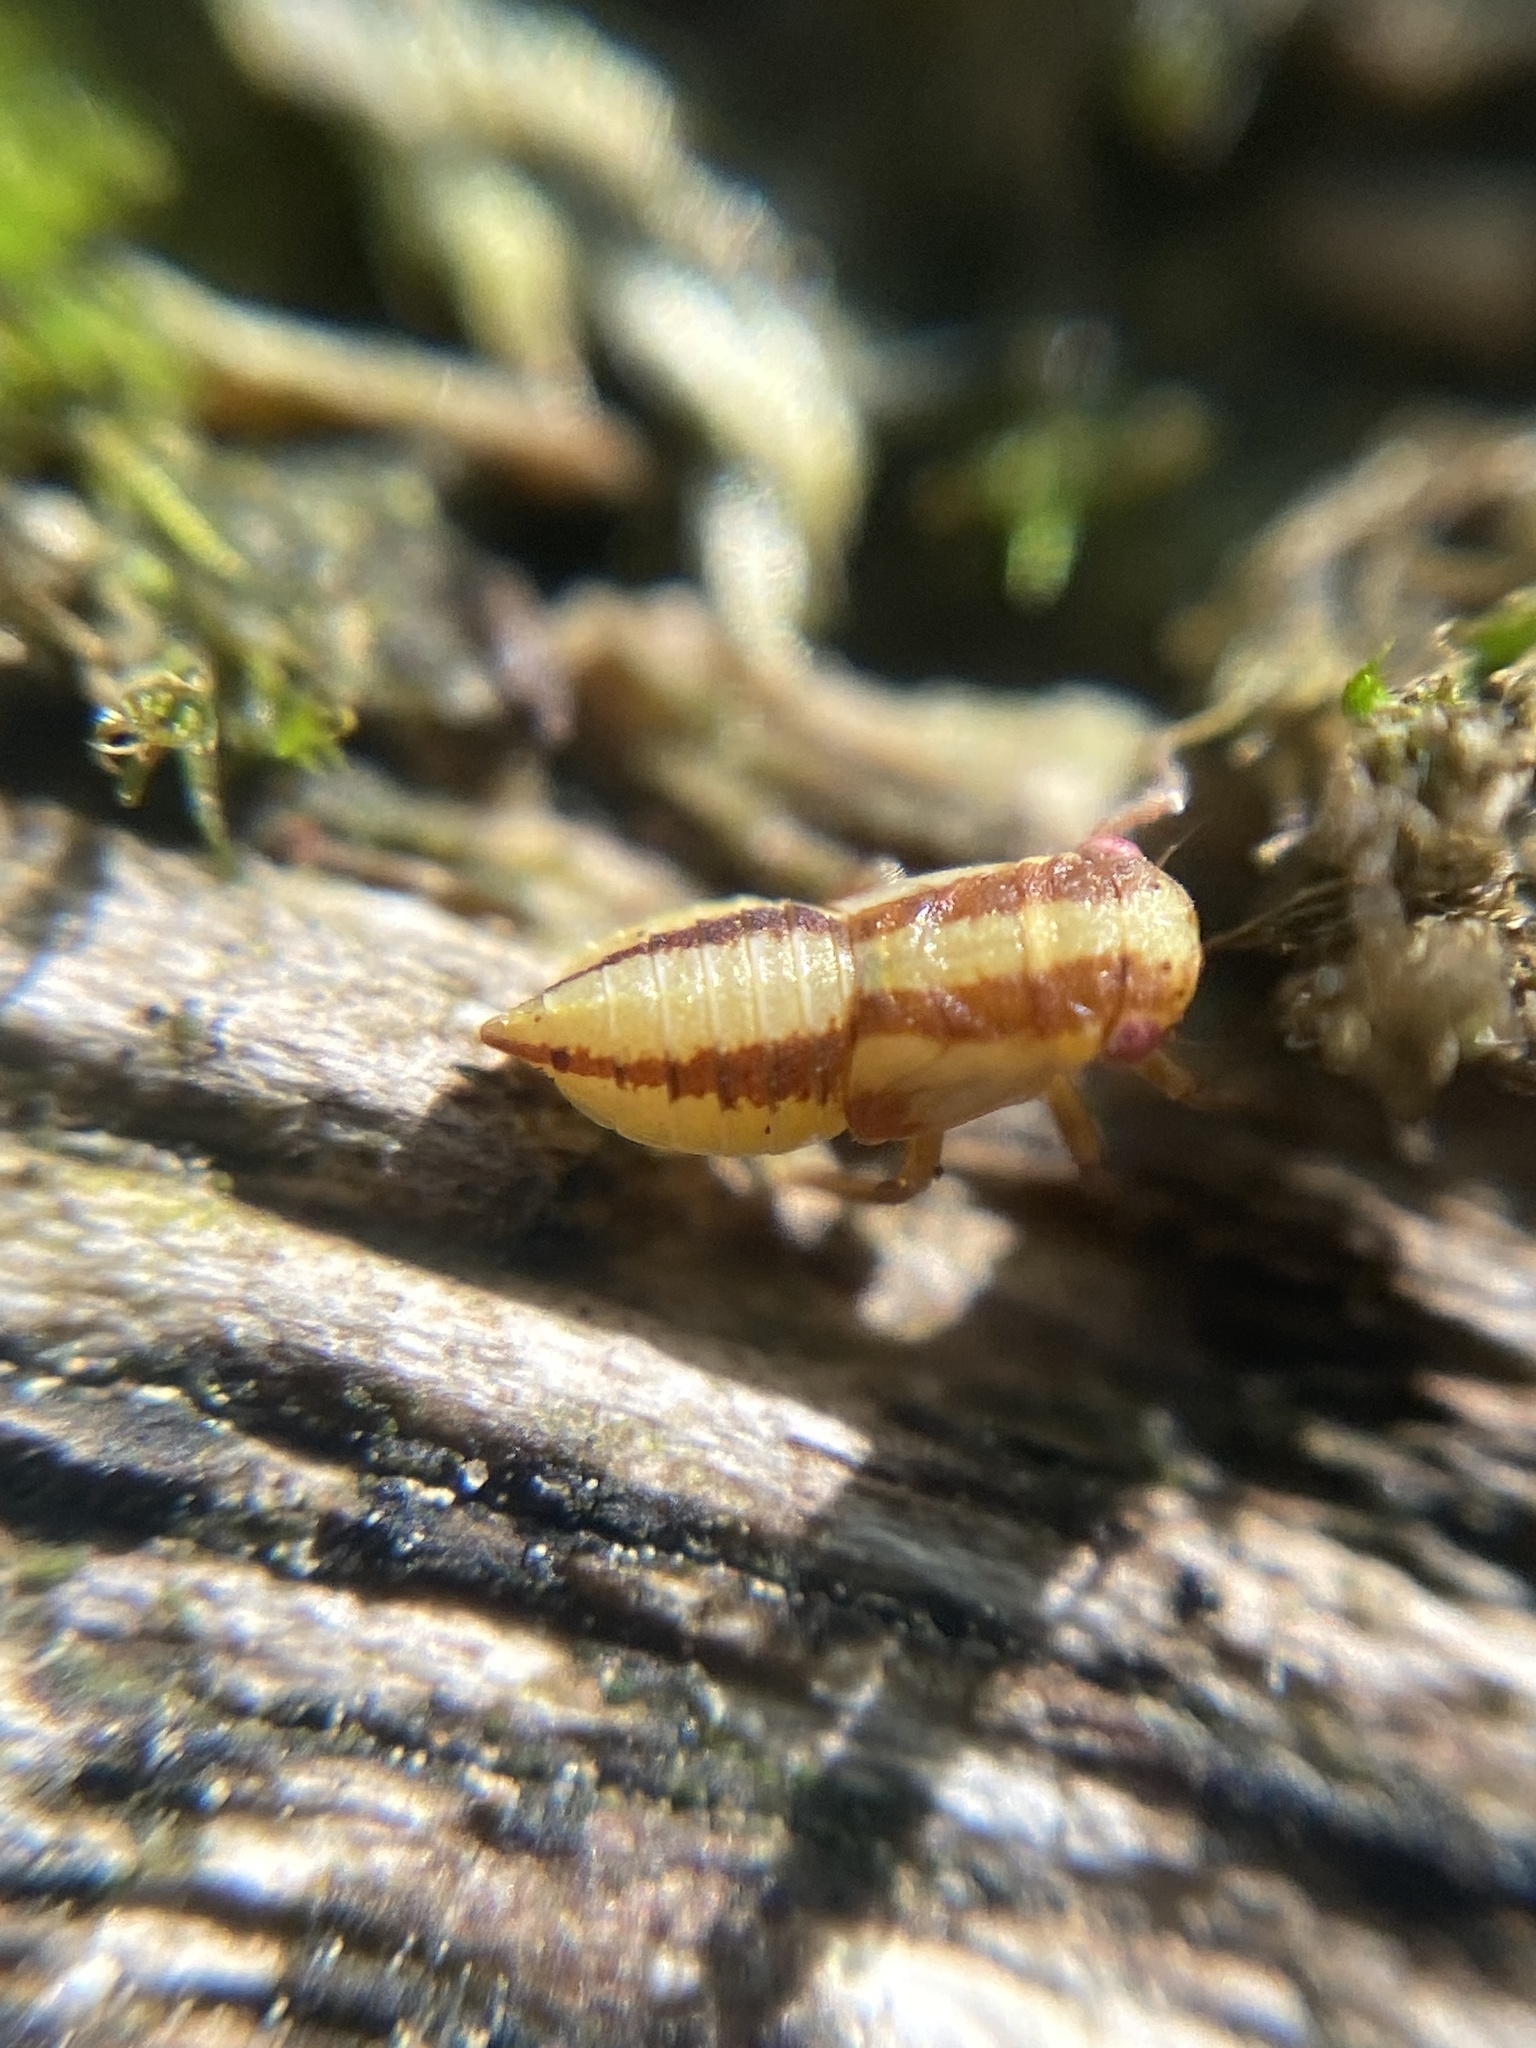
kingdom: Animalia
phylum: Arthropoda
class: Insecta
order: Hemiptera
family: Cicadellidae
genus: Oncopsis
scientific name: Oncopsis flavicollis
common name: Leafhopper
